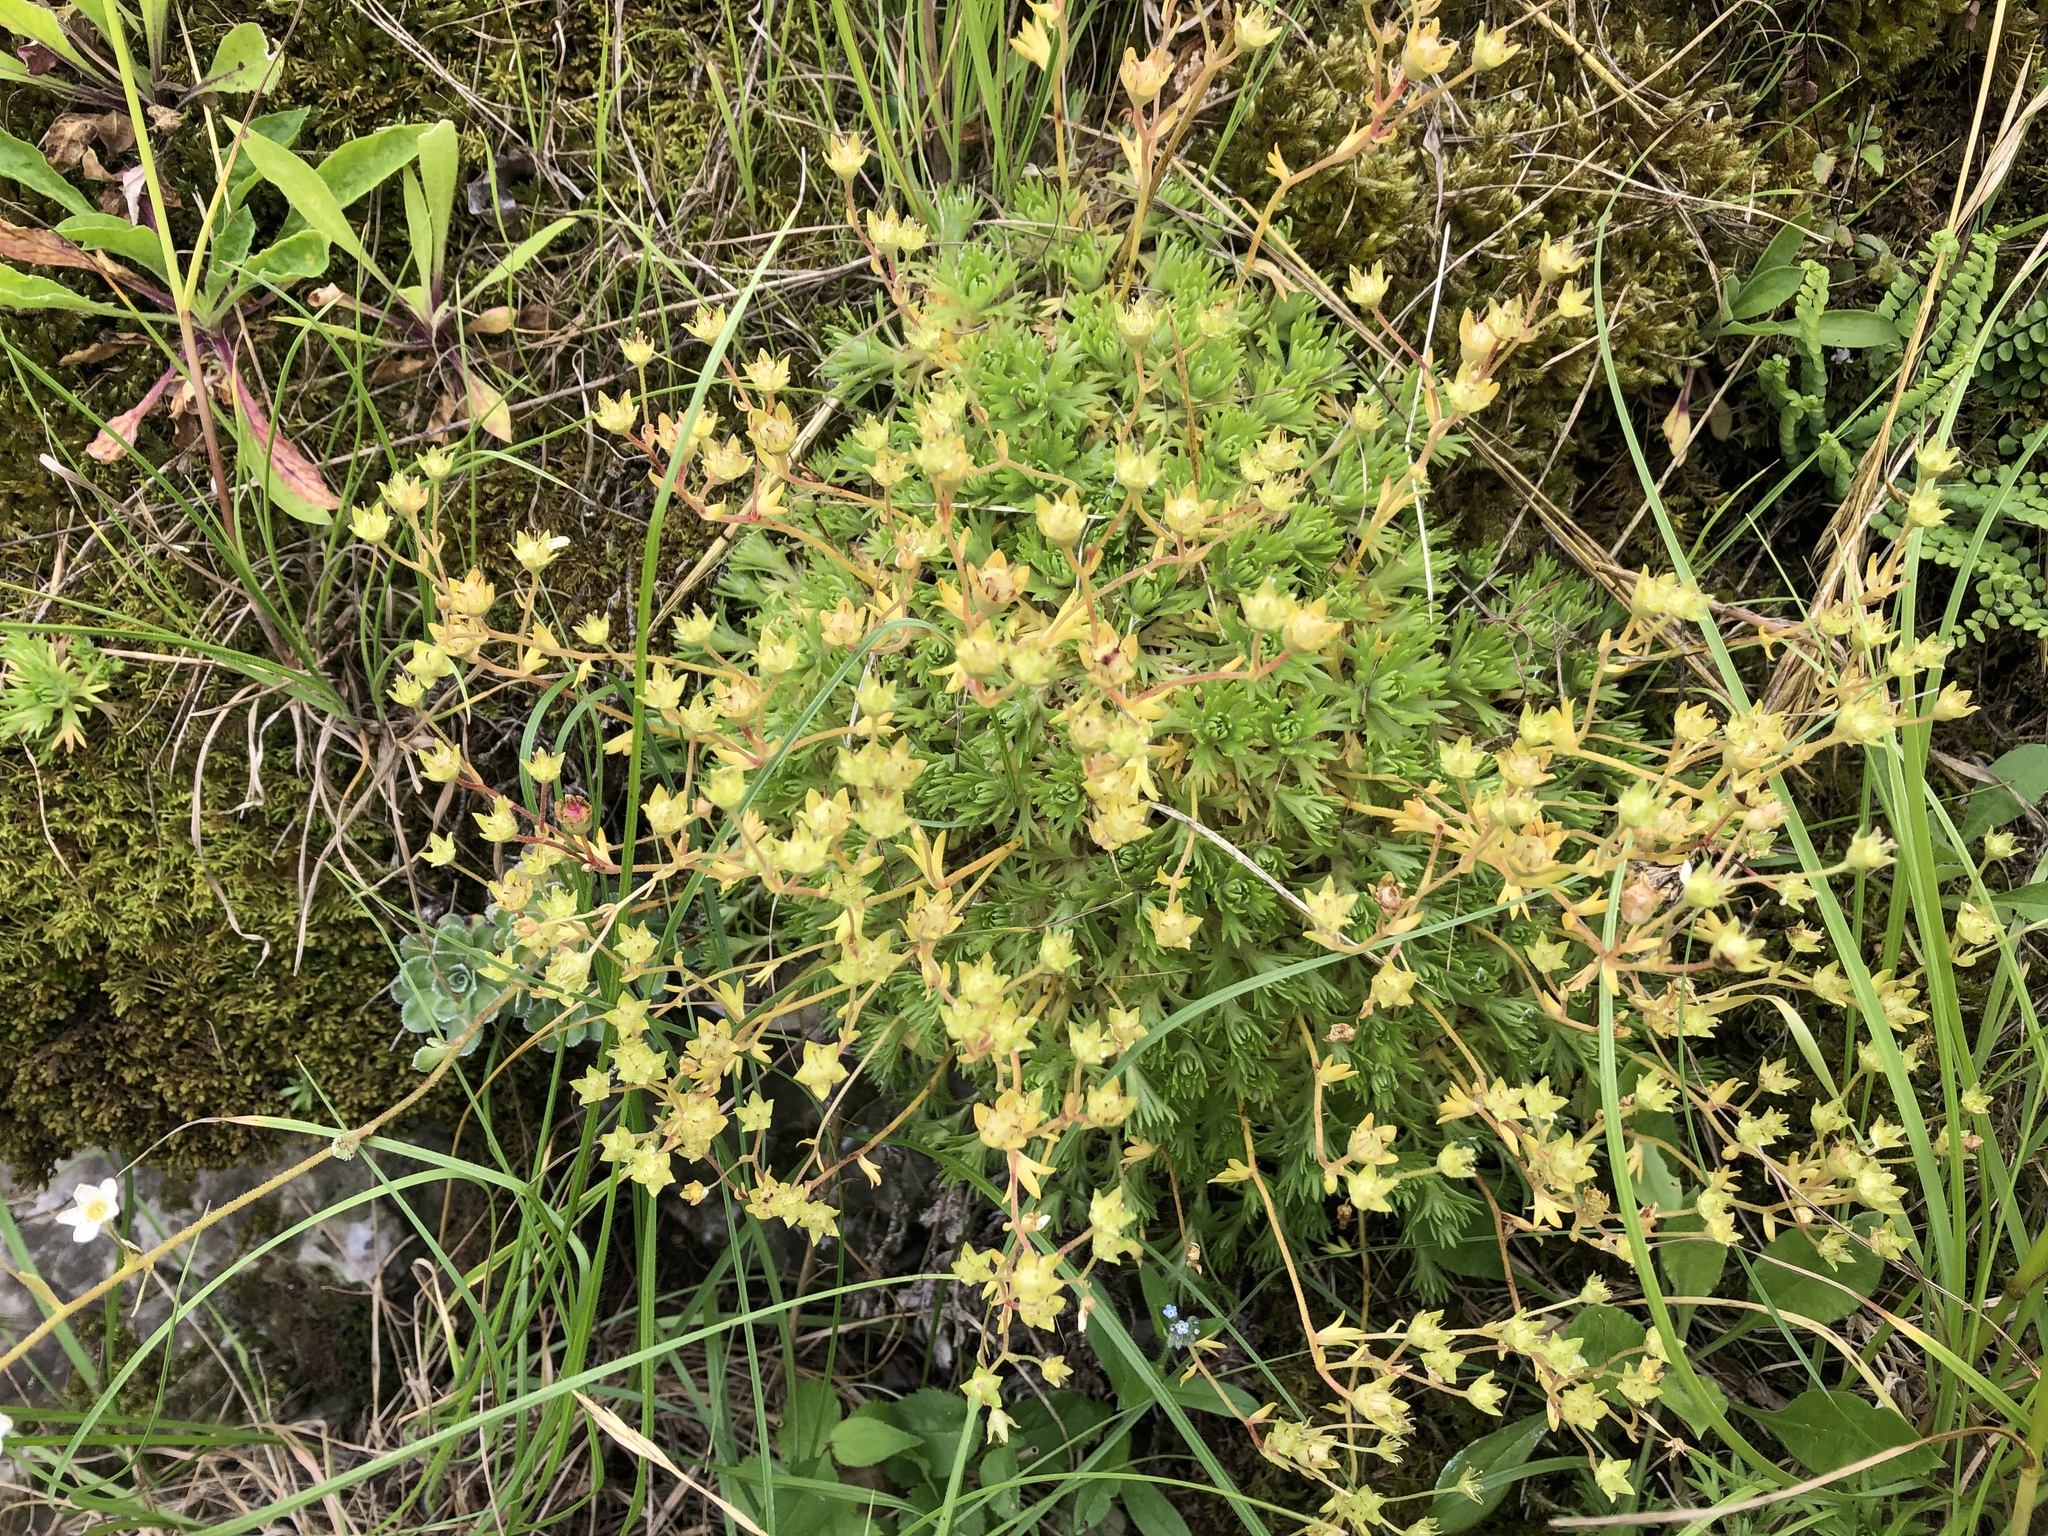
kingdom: Plantae
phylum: Tracheophyta
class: Magnoliopsida
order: Saxifragales
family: Saxifragaceae
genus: Saxifraga
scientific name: Saxifraga rosacea
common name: Irish saxifrage
